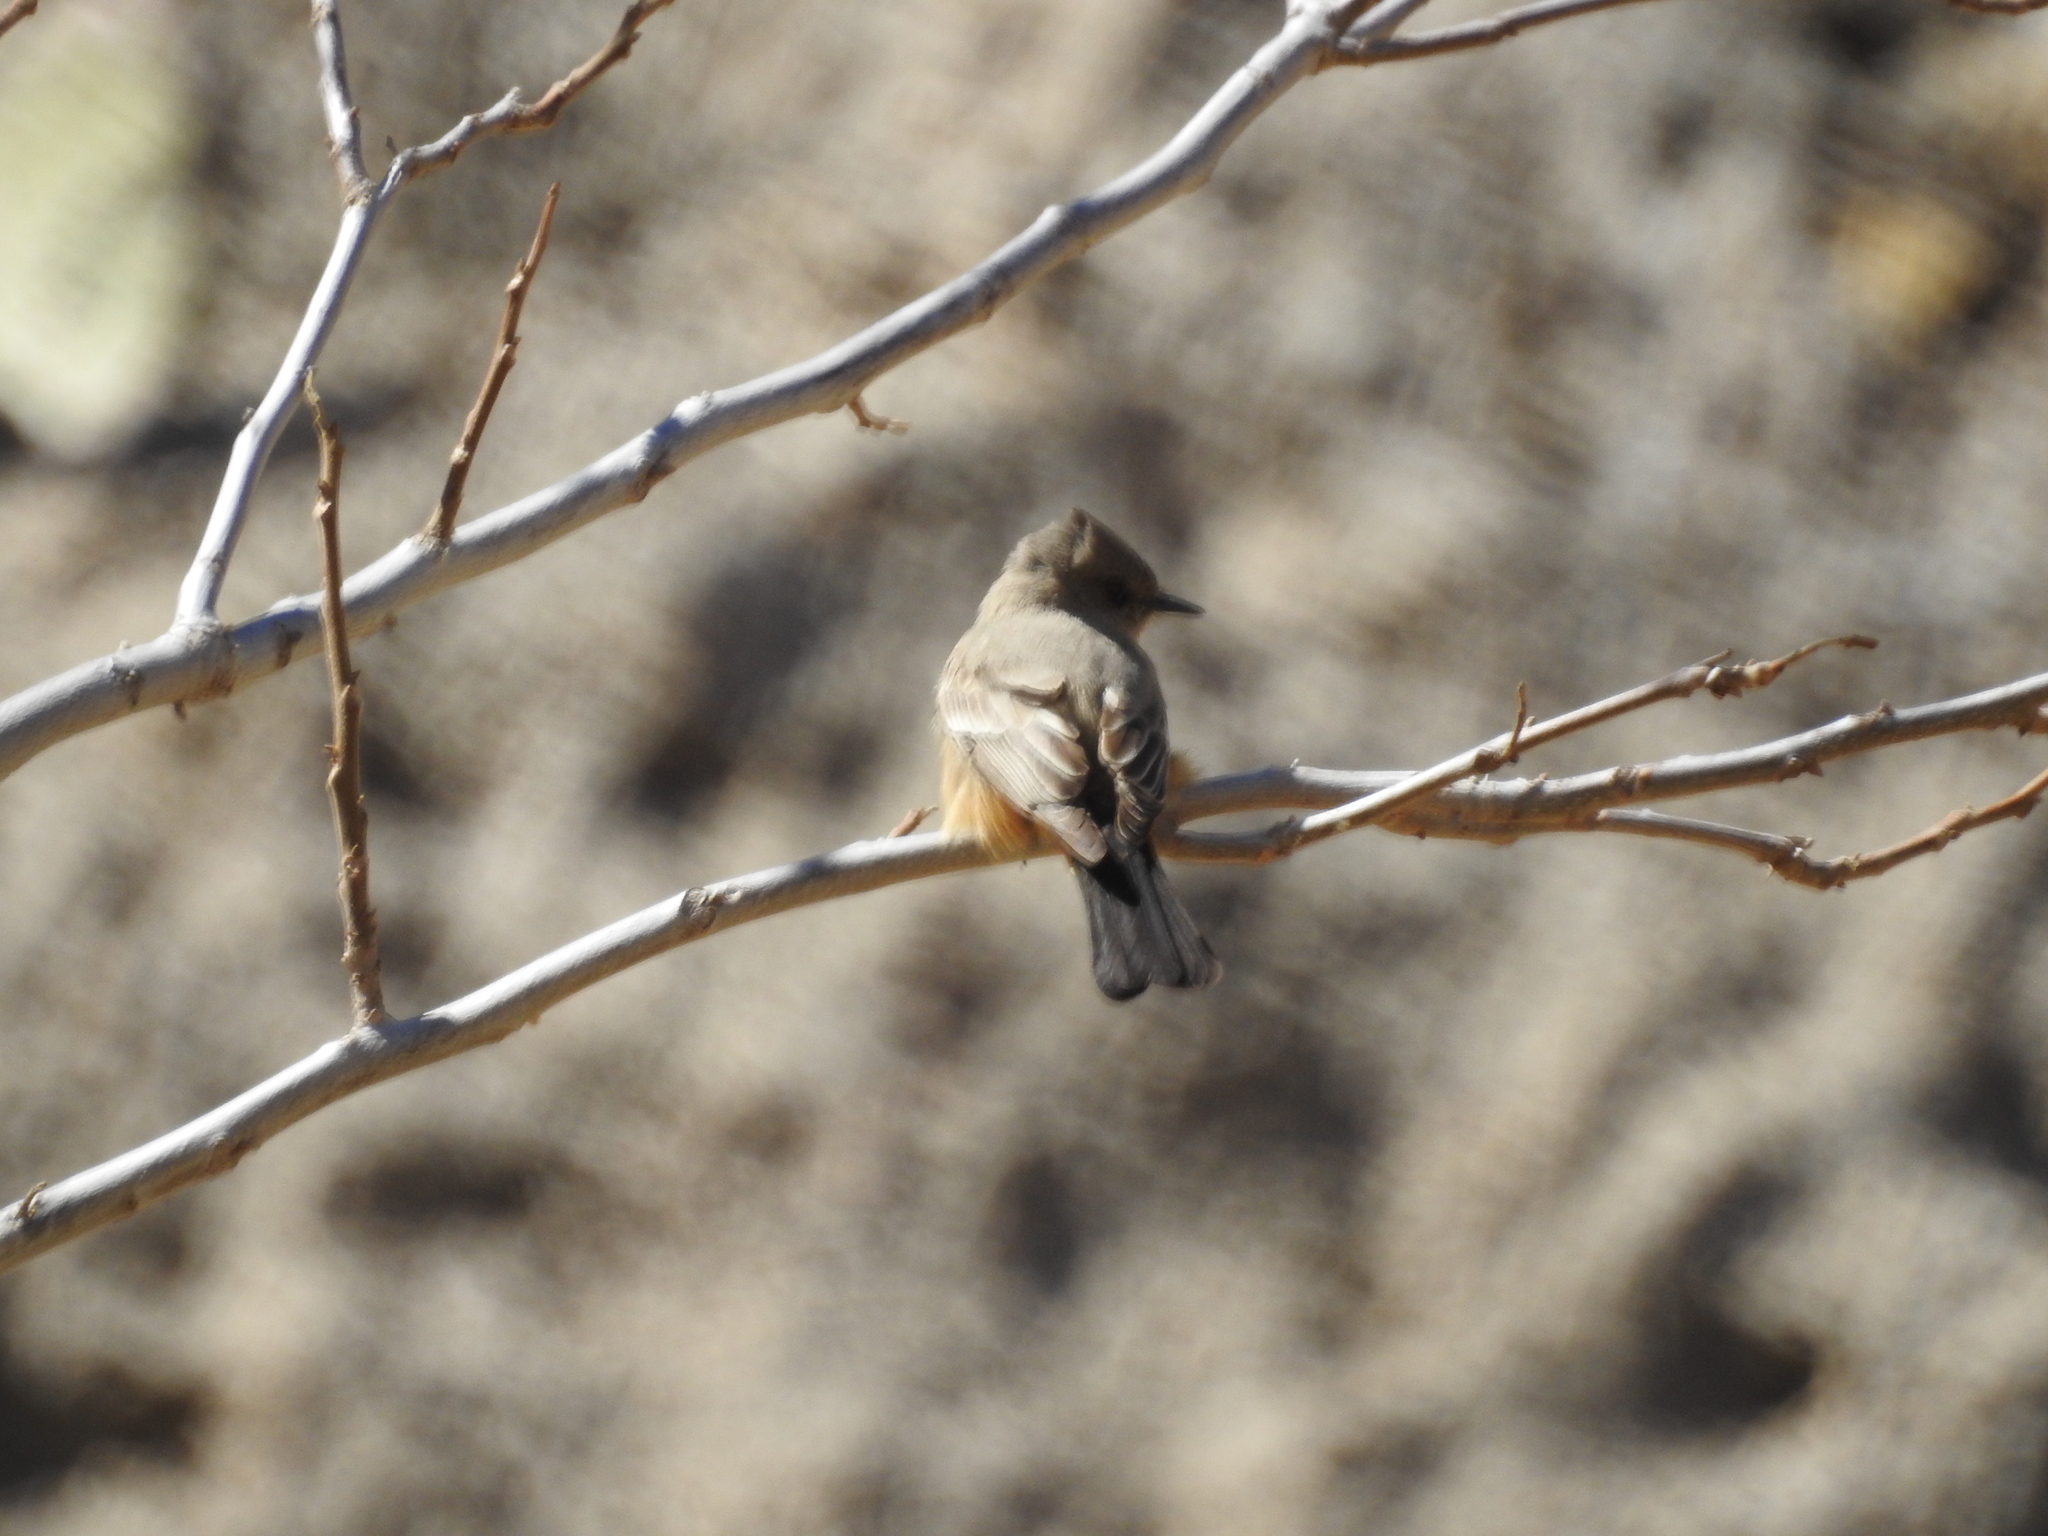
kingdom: Animalia
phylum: Chordata
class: Aves
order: Passeriformes
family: Tyrannidae
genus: Sayornis
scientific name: Sayornis saya
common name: Say's phoebe
